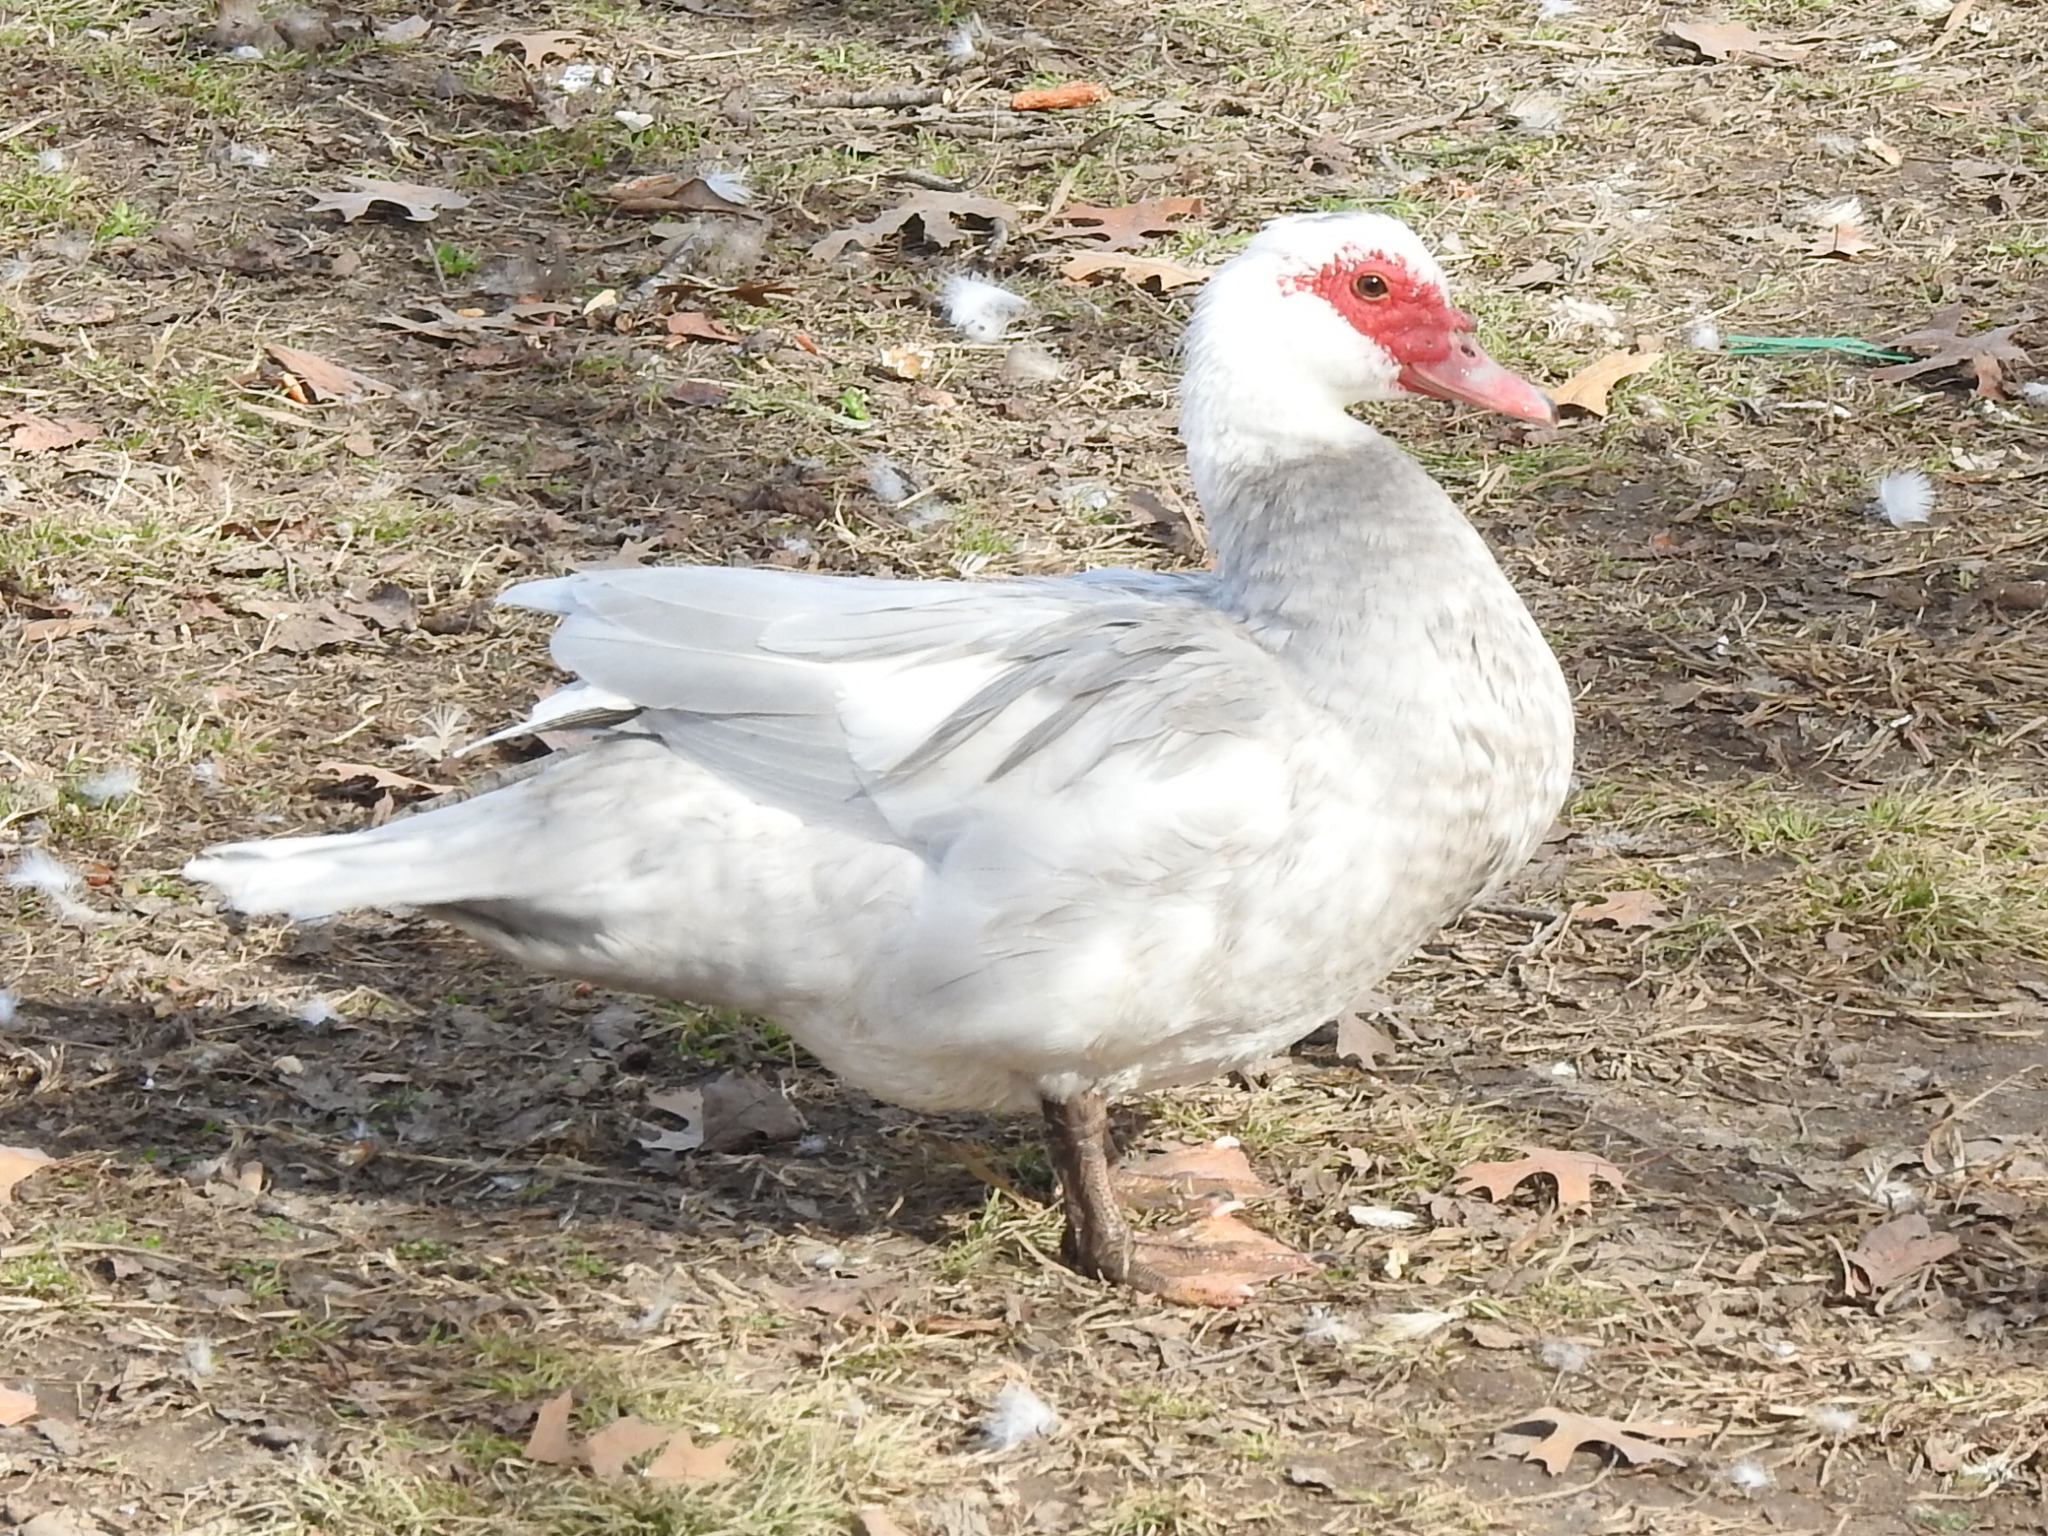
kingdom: Animalia
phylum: Chordata
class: Aves
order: Anseriformes
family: Anatidae
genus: Cairina
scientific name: Cairina moschata
